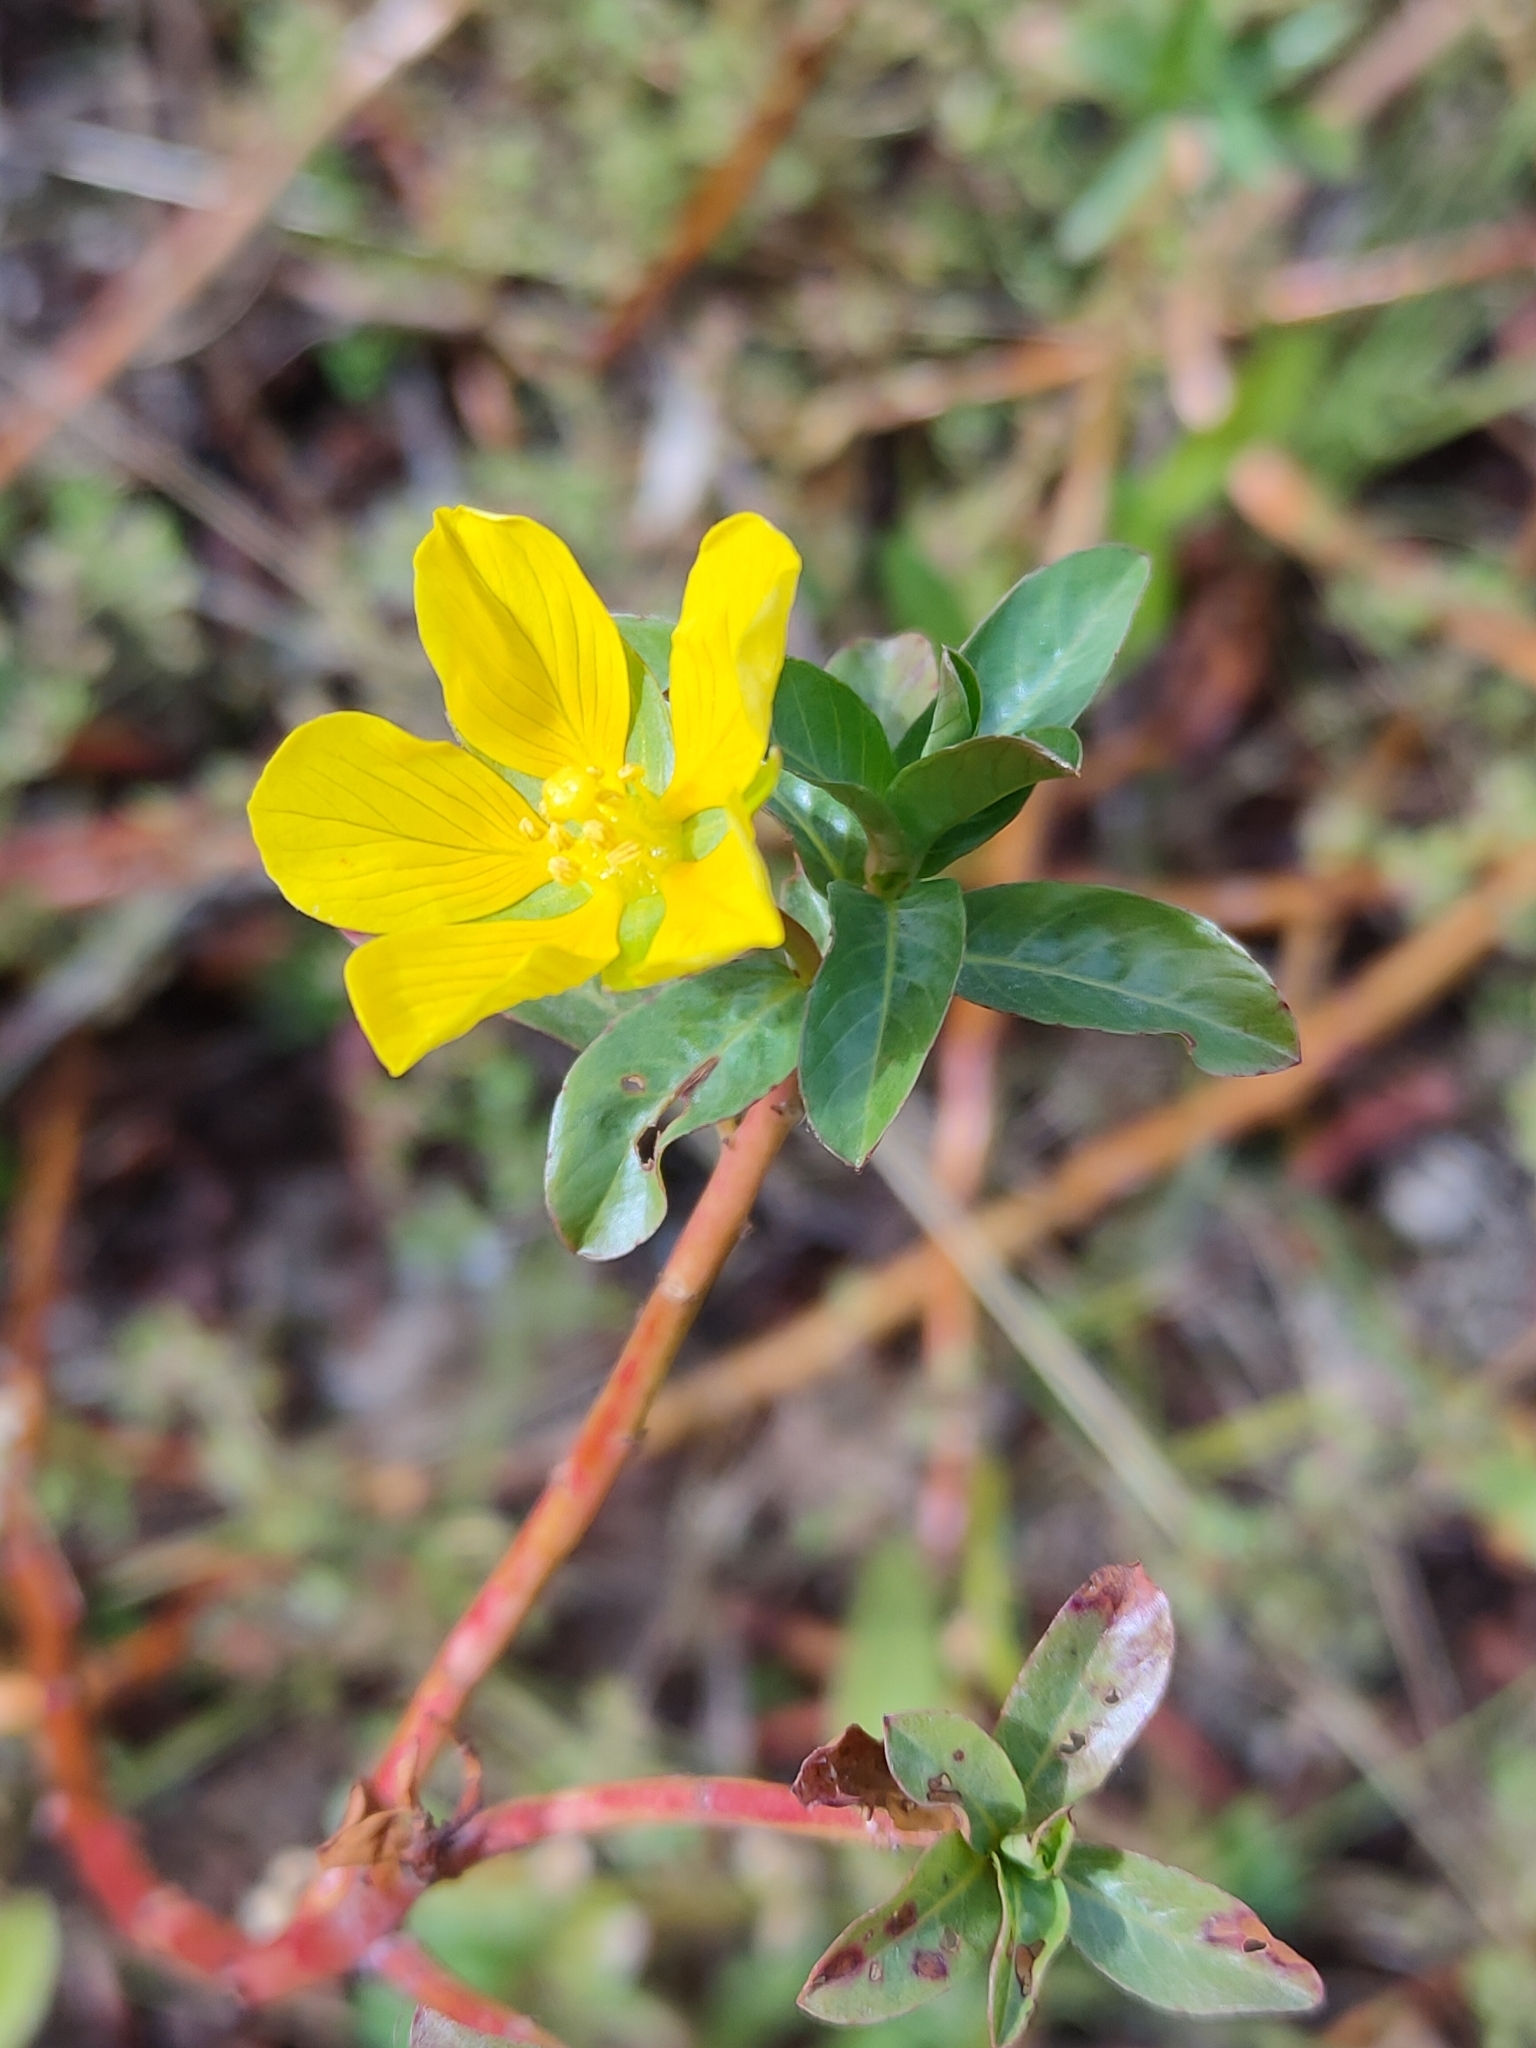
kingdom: Plantae
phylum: Tracheophyta
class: Magnoliopsida
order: Myrtales
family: Onagraceae
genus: Ludwigia
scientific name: Ludwigia peploides
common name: Floating primrose-willow
